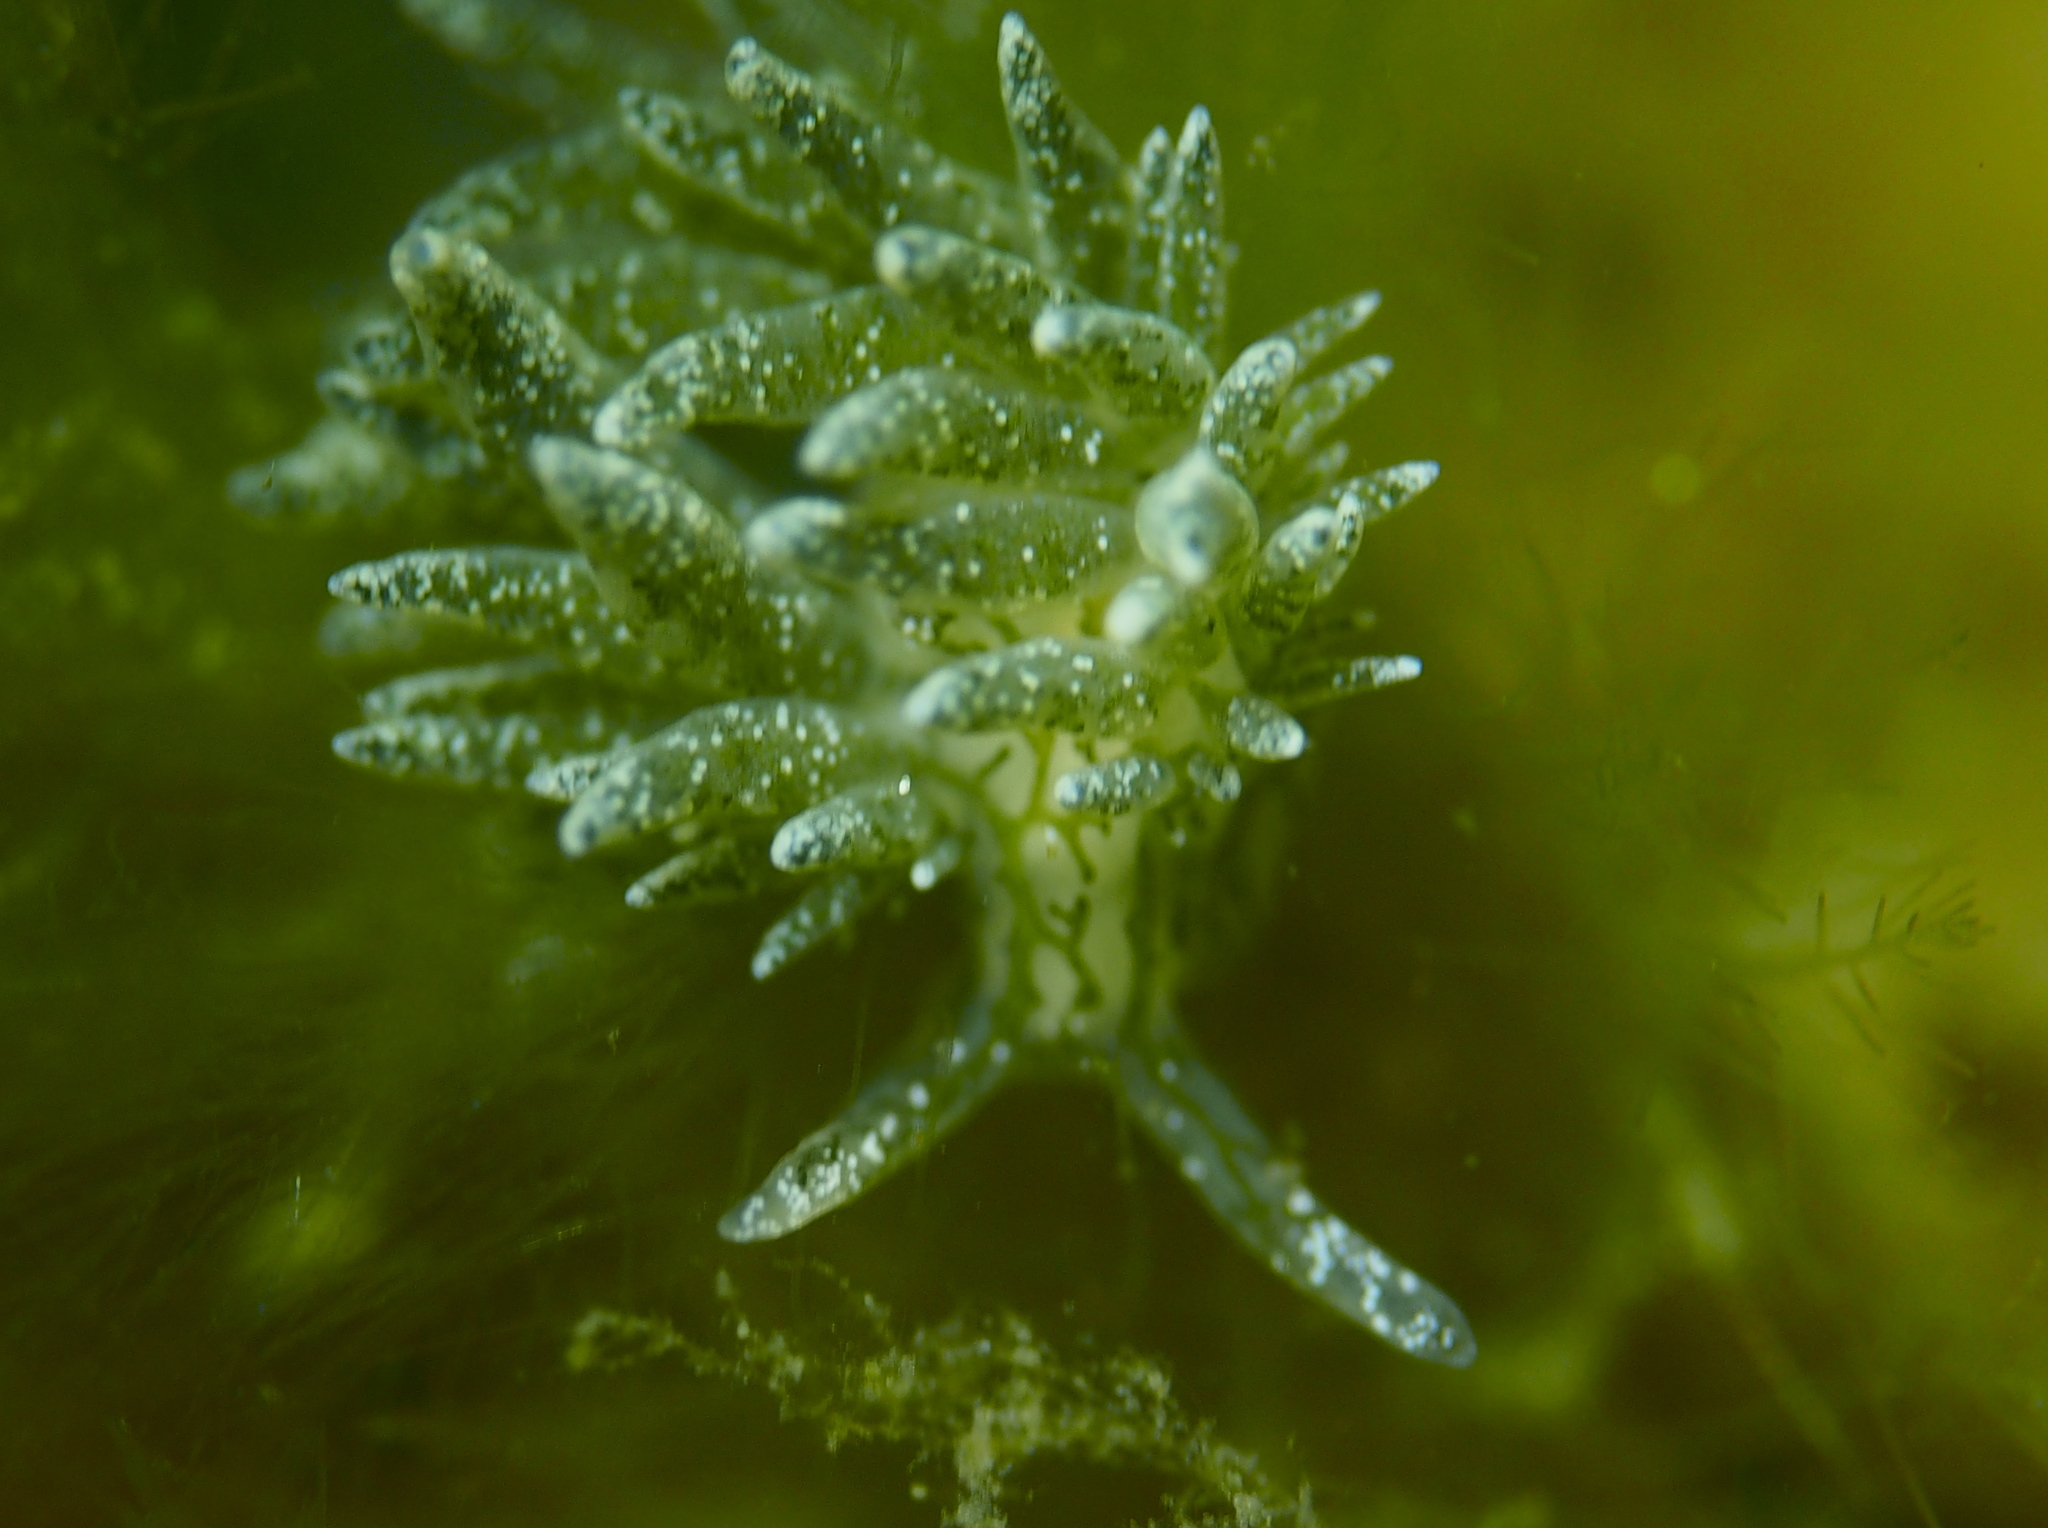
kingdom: Animalia
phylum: Mollusca
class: Gastropoda
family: Limapontiidae
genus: Placida
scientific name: Placida dendritica
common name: Dendritic nudibranch
